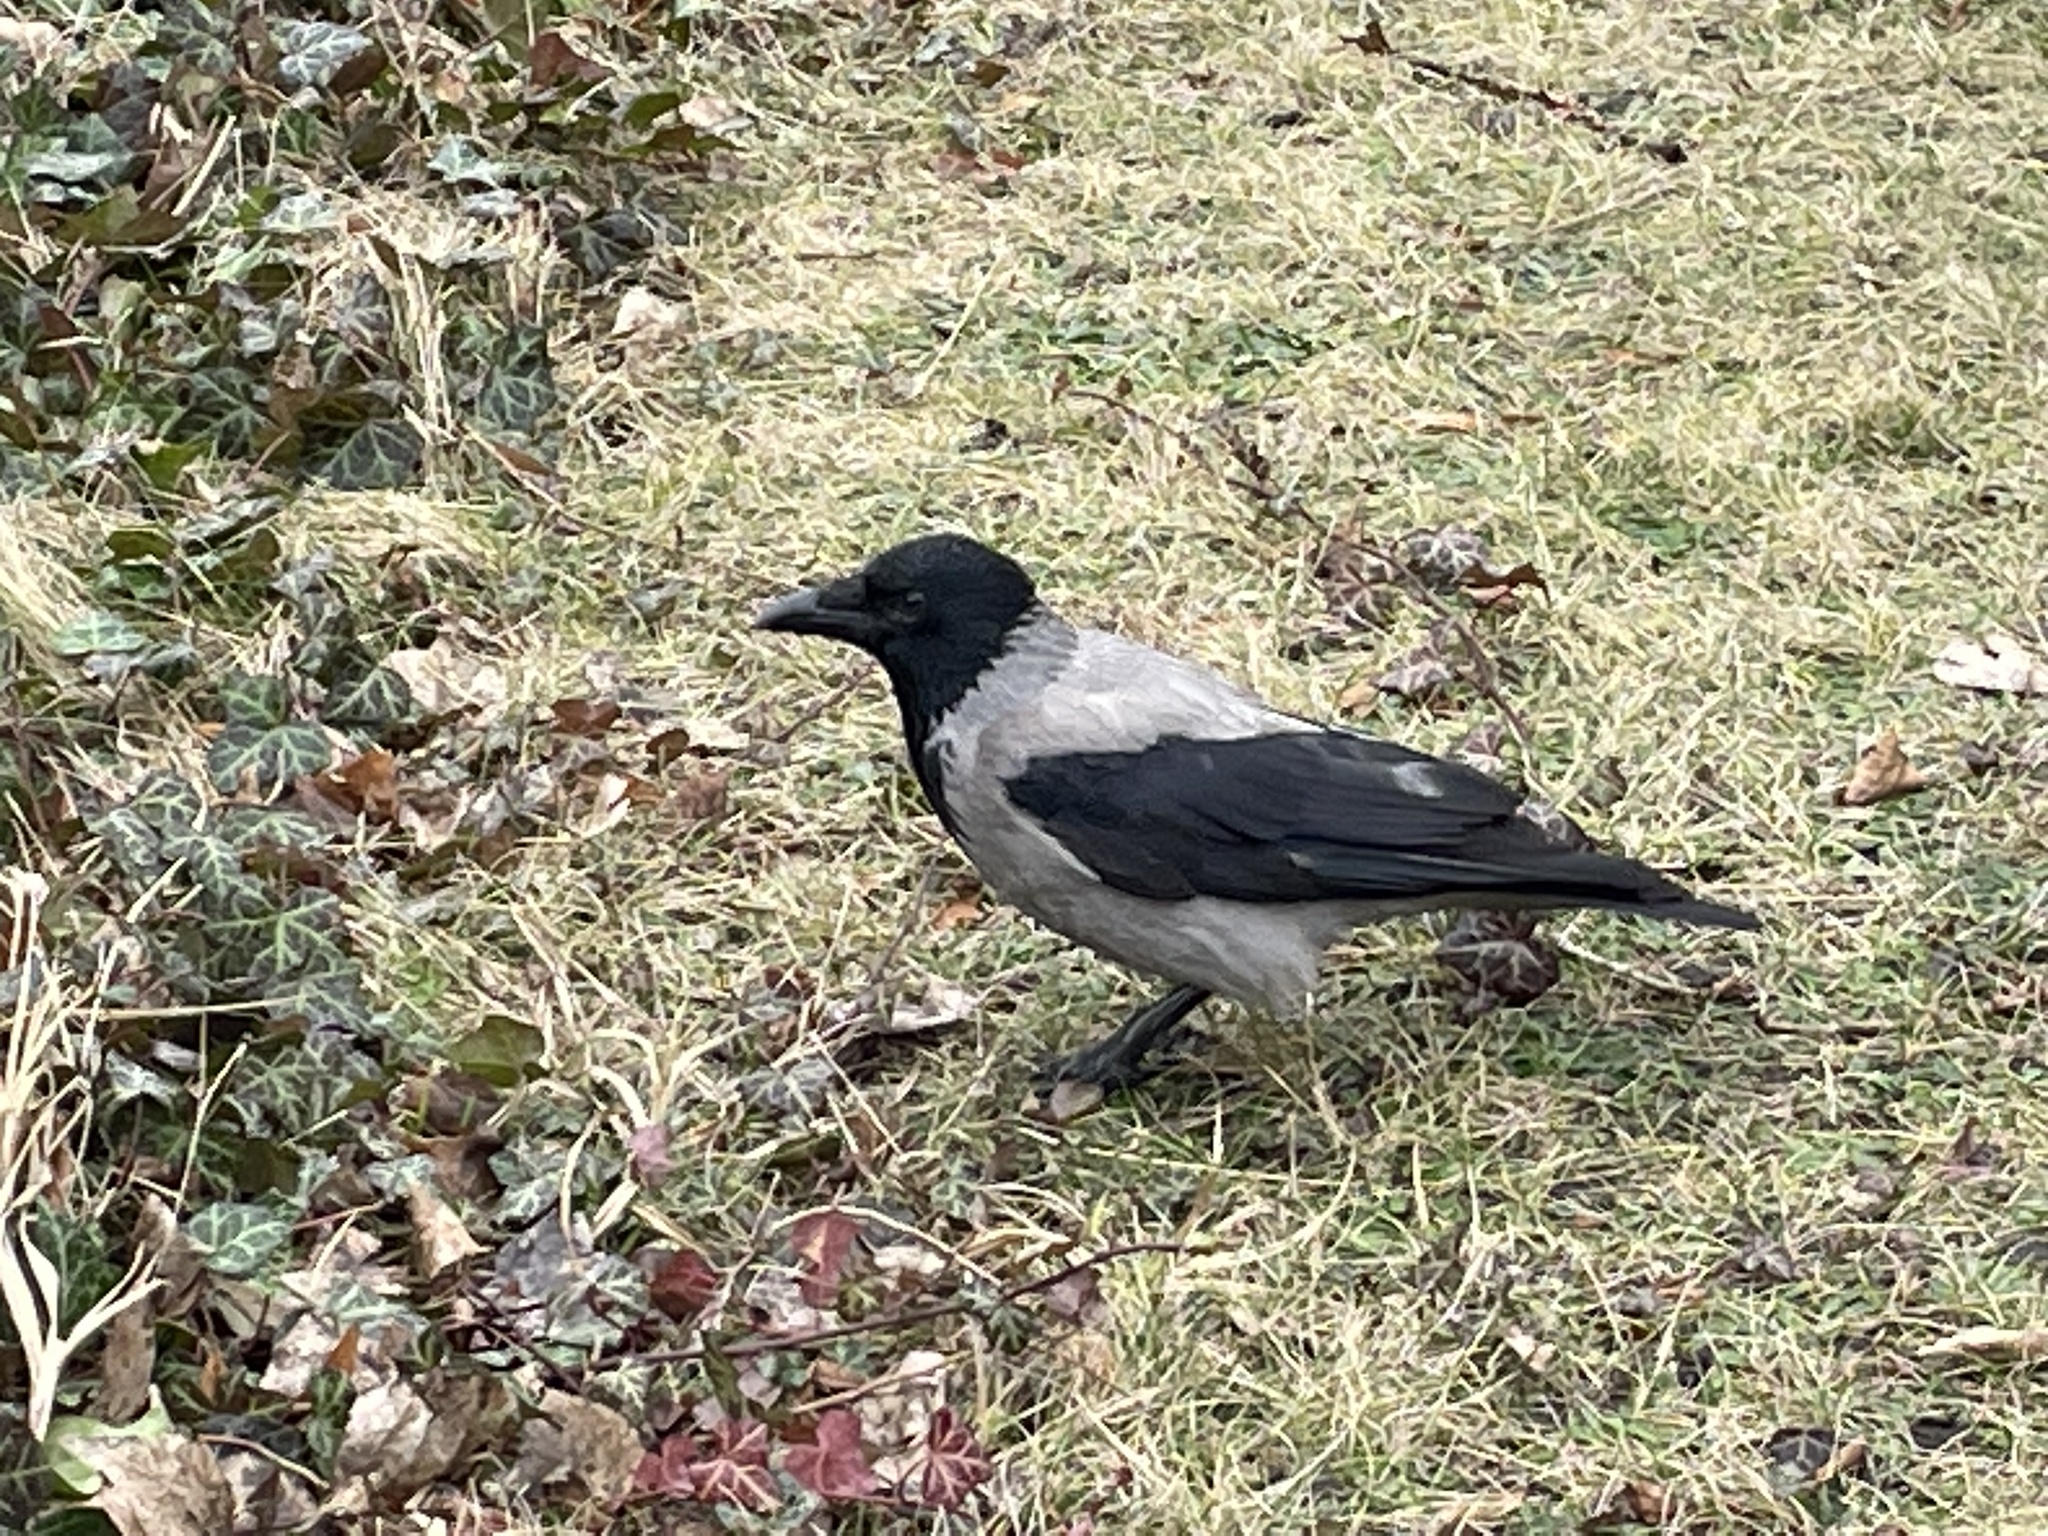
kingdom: Animalia
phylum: Chordata
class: Aves
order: Passeriformes
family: Corvidae
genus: Corvus
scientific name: Corvus cornix
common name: Hooded crow
